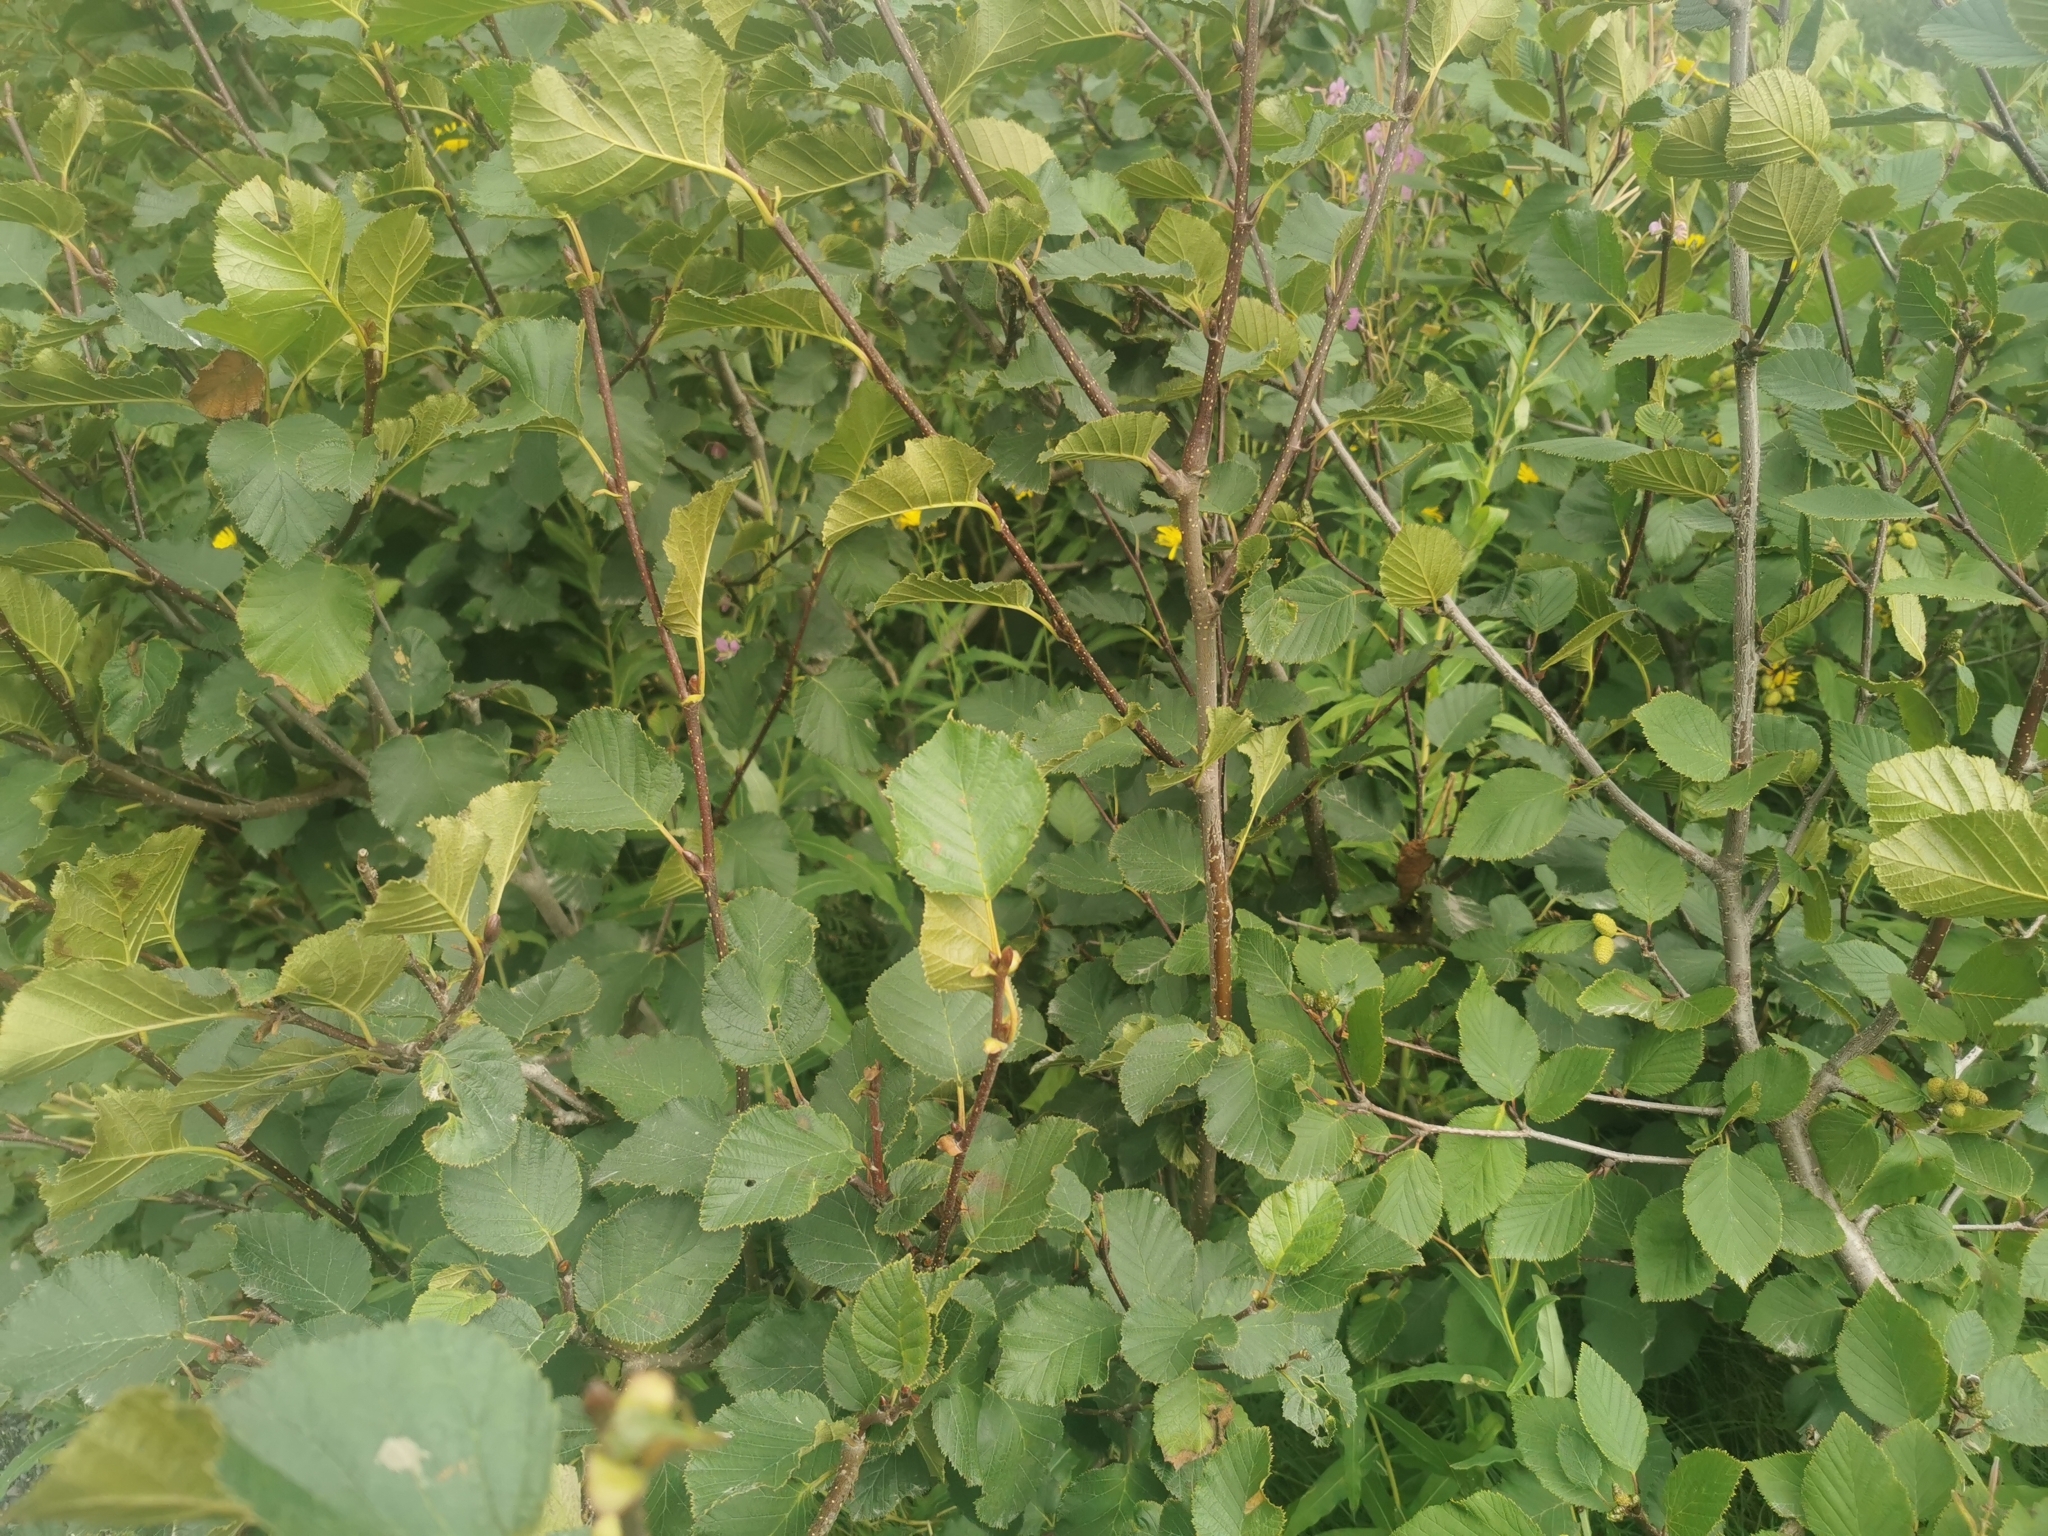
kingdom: Plantae
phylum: Tracheophyta
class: Magnoliopsida
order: Fagales
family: Betulaceae
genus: Alnus
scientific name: Alnus alnobetula
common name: Green alder
